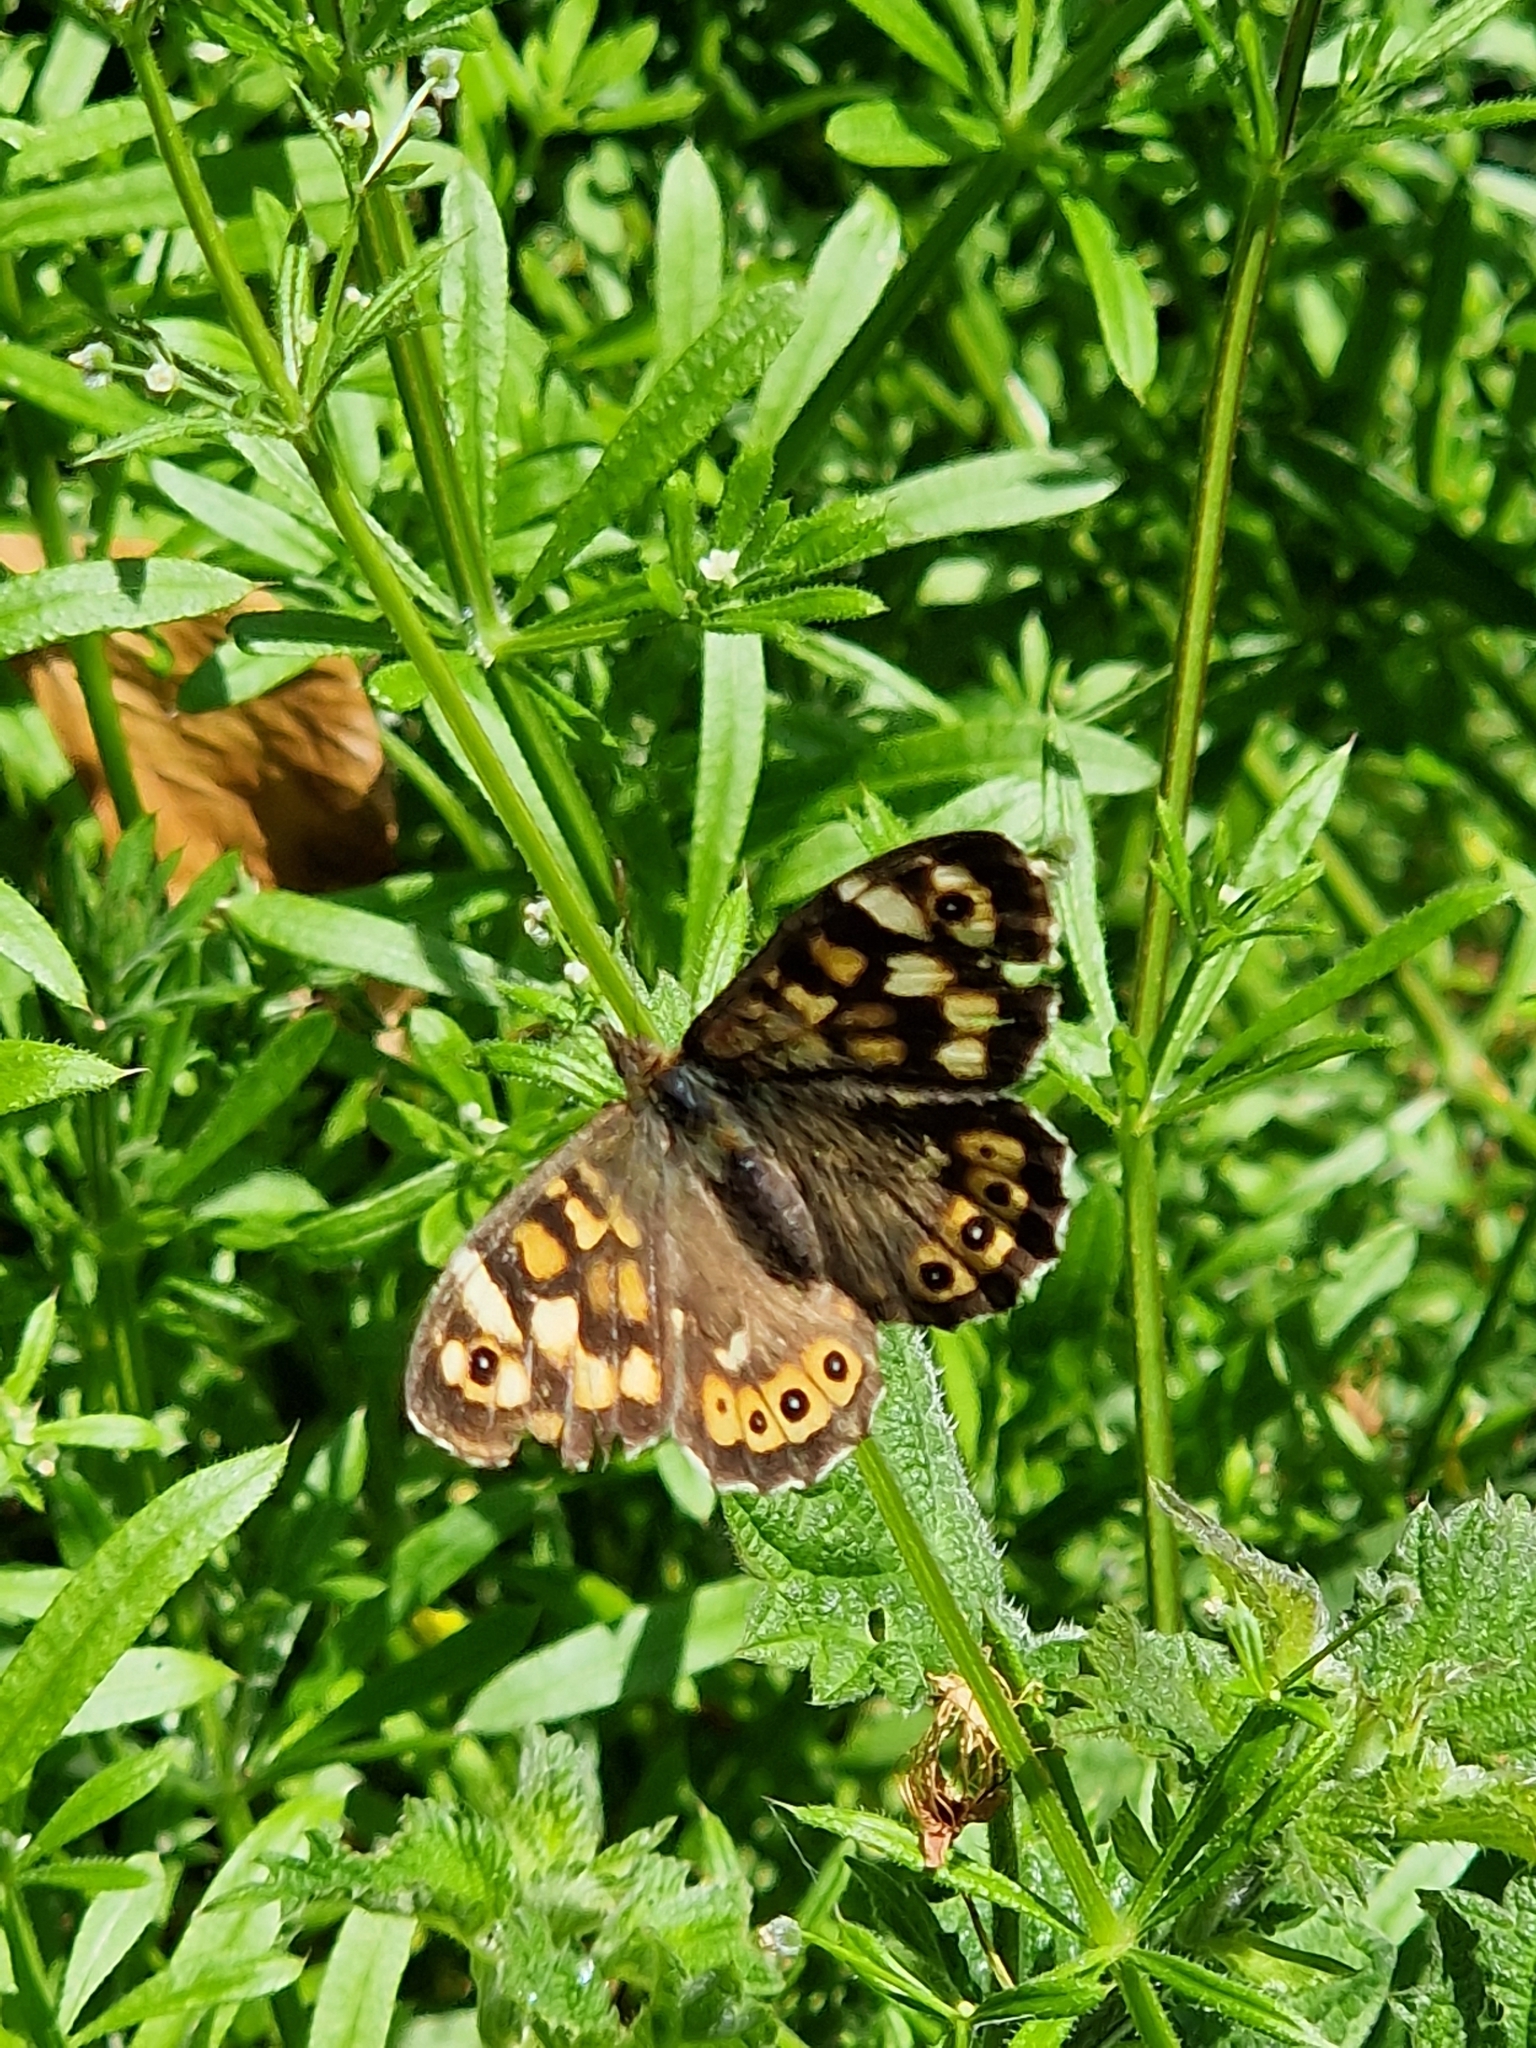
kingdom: Animalia
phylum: Arthropoda
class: Insecta
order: Lepidoptera
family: Nymphalidae
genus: Pararge
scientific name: Pararge aegeria
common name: Speckled wood
